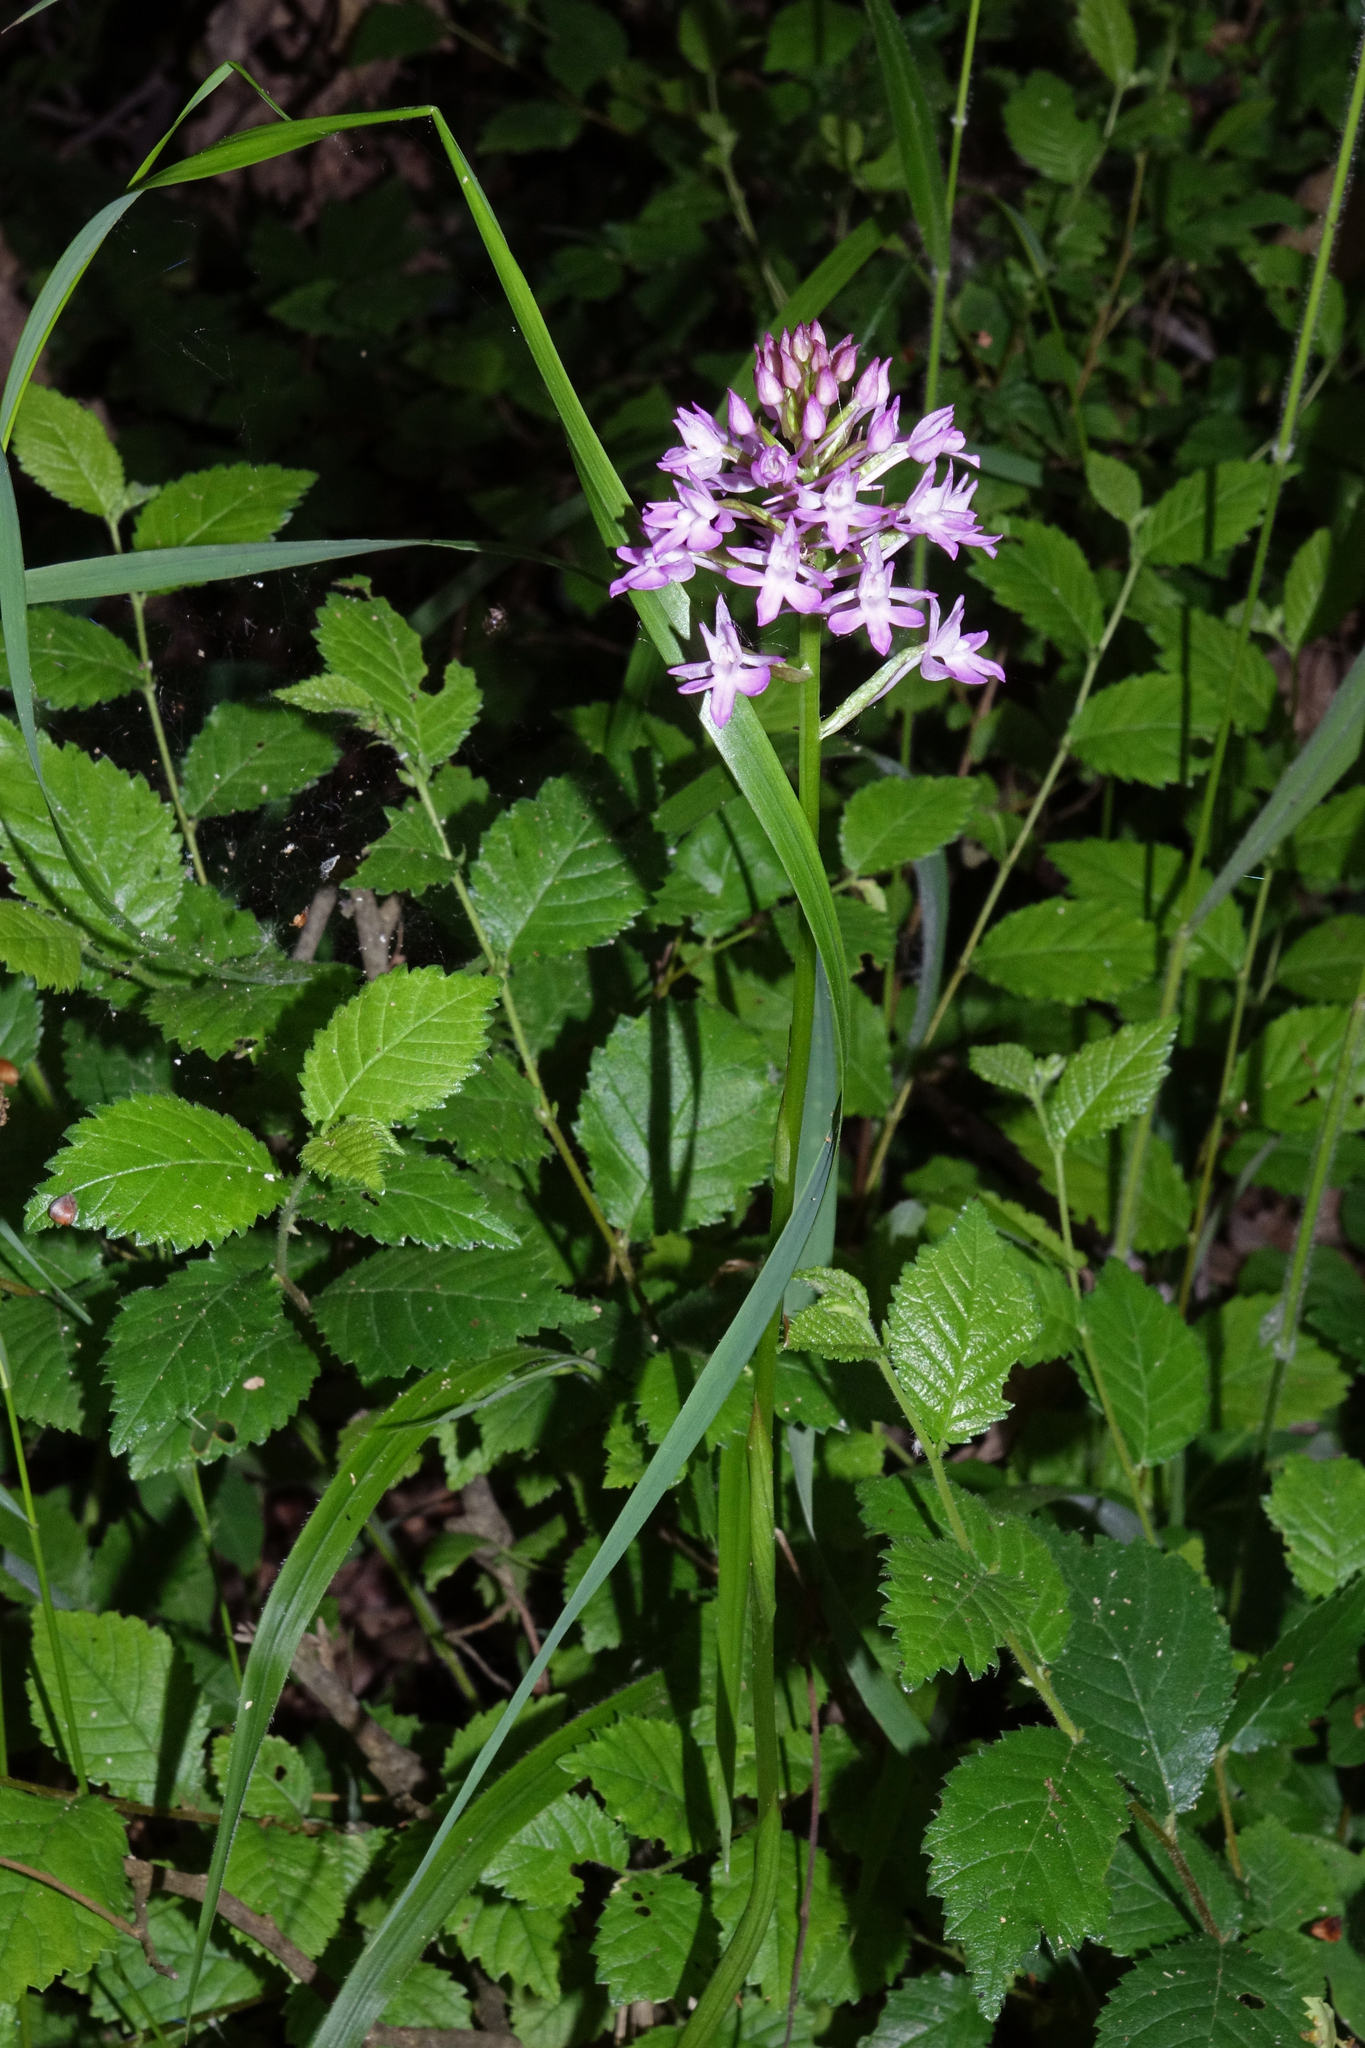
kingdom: Plantae
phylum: Tracheophyta
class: Liliopsida
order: Asparagales
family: Orchidaceae
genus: Anacamptis
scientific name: Anacamptis pyramidalis
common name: Pyramidal orchid
